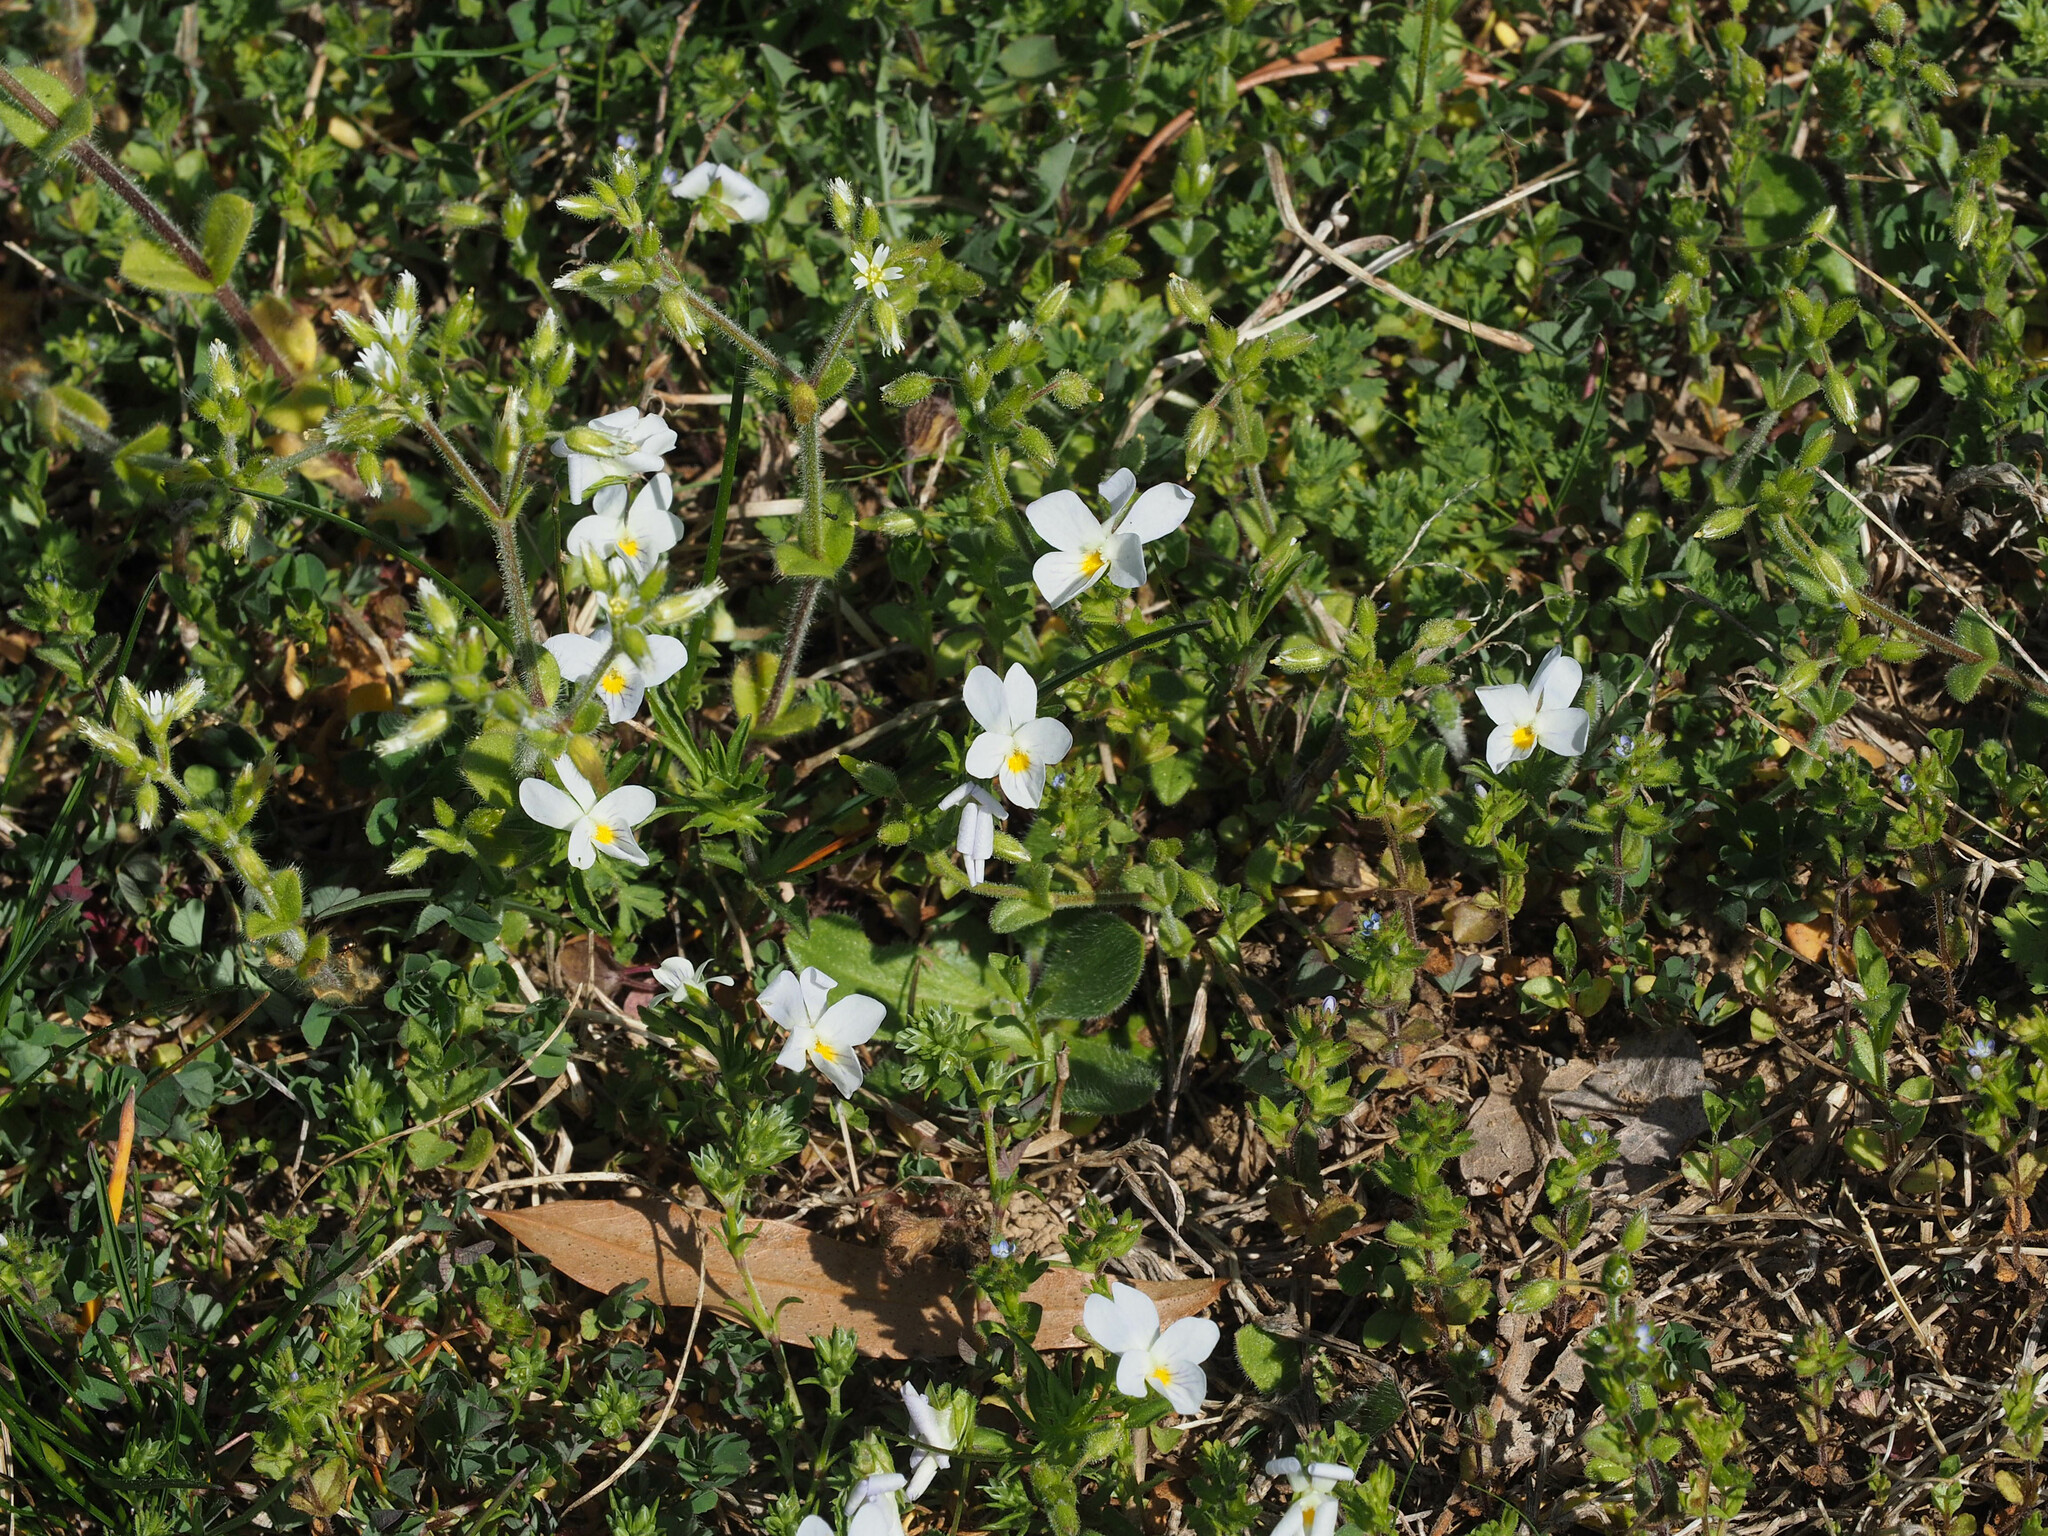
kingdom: Plantae
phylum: Tracheophyta
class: Magnoliopsida
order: Malpighiales
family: Violaceae
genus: Viola
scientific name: Viola rafinesquei
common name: American field pansy
